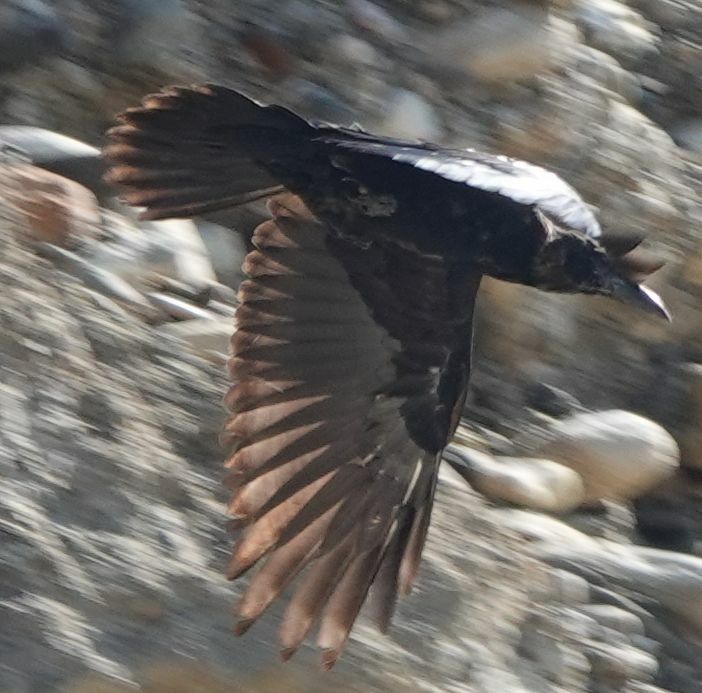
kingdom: Animalia
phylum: Chordata
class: Aves
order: Passeriformes
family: Corvidae
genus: Corvus
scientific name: Corvus corax
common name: Common raven
